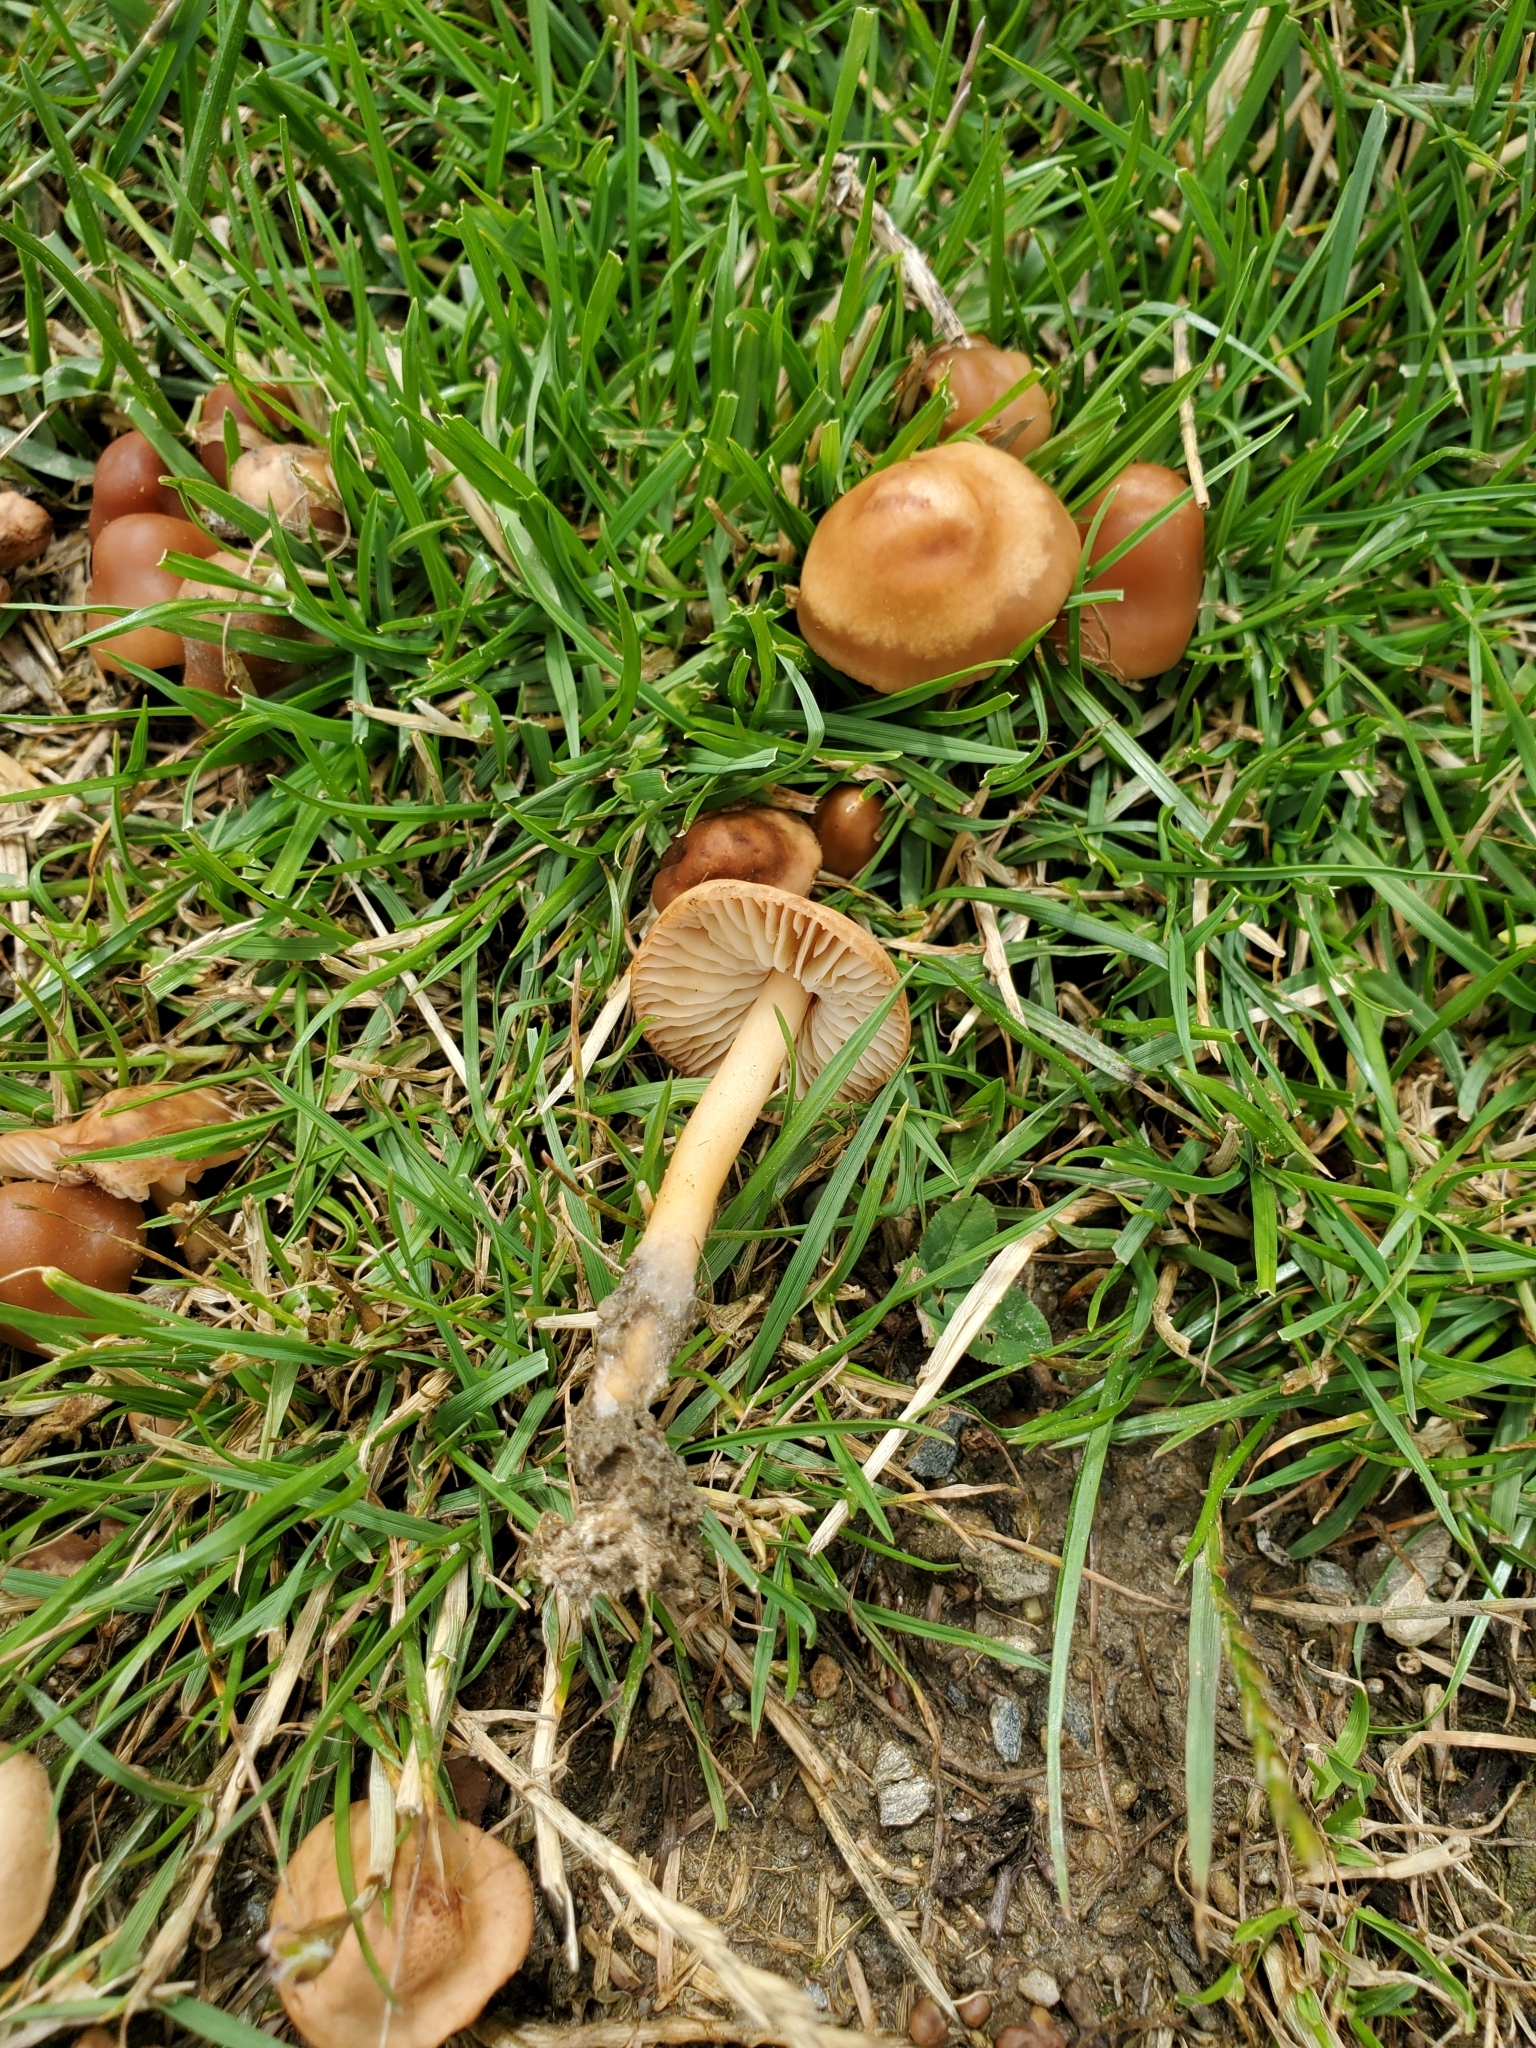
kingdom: Fungi
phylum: Basidiomycota
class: Agaricomycetes
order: Agaricales
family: Marasmiaceae
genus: Marasmius
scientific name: Marasmius oreades
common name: Fairy ring champignon
